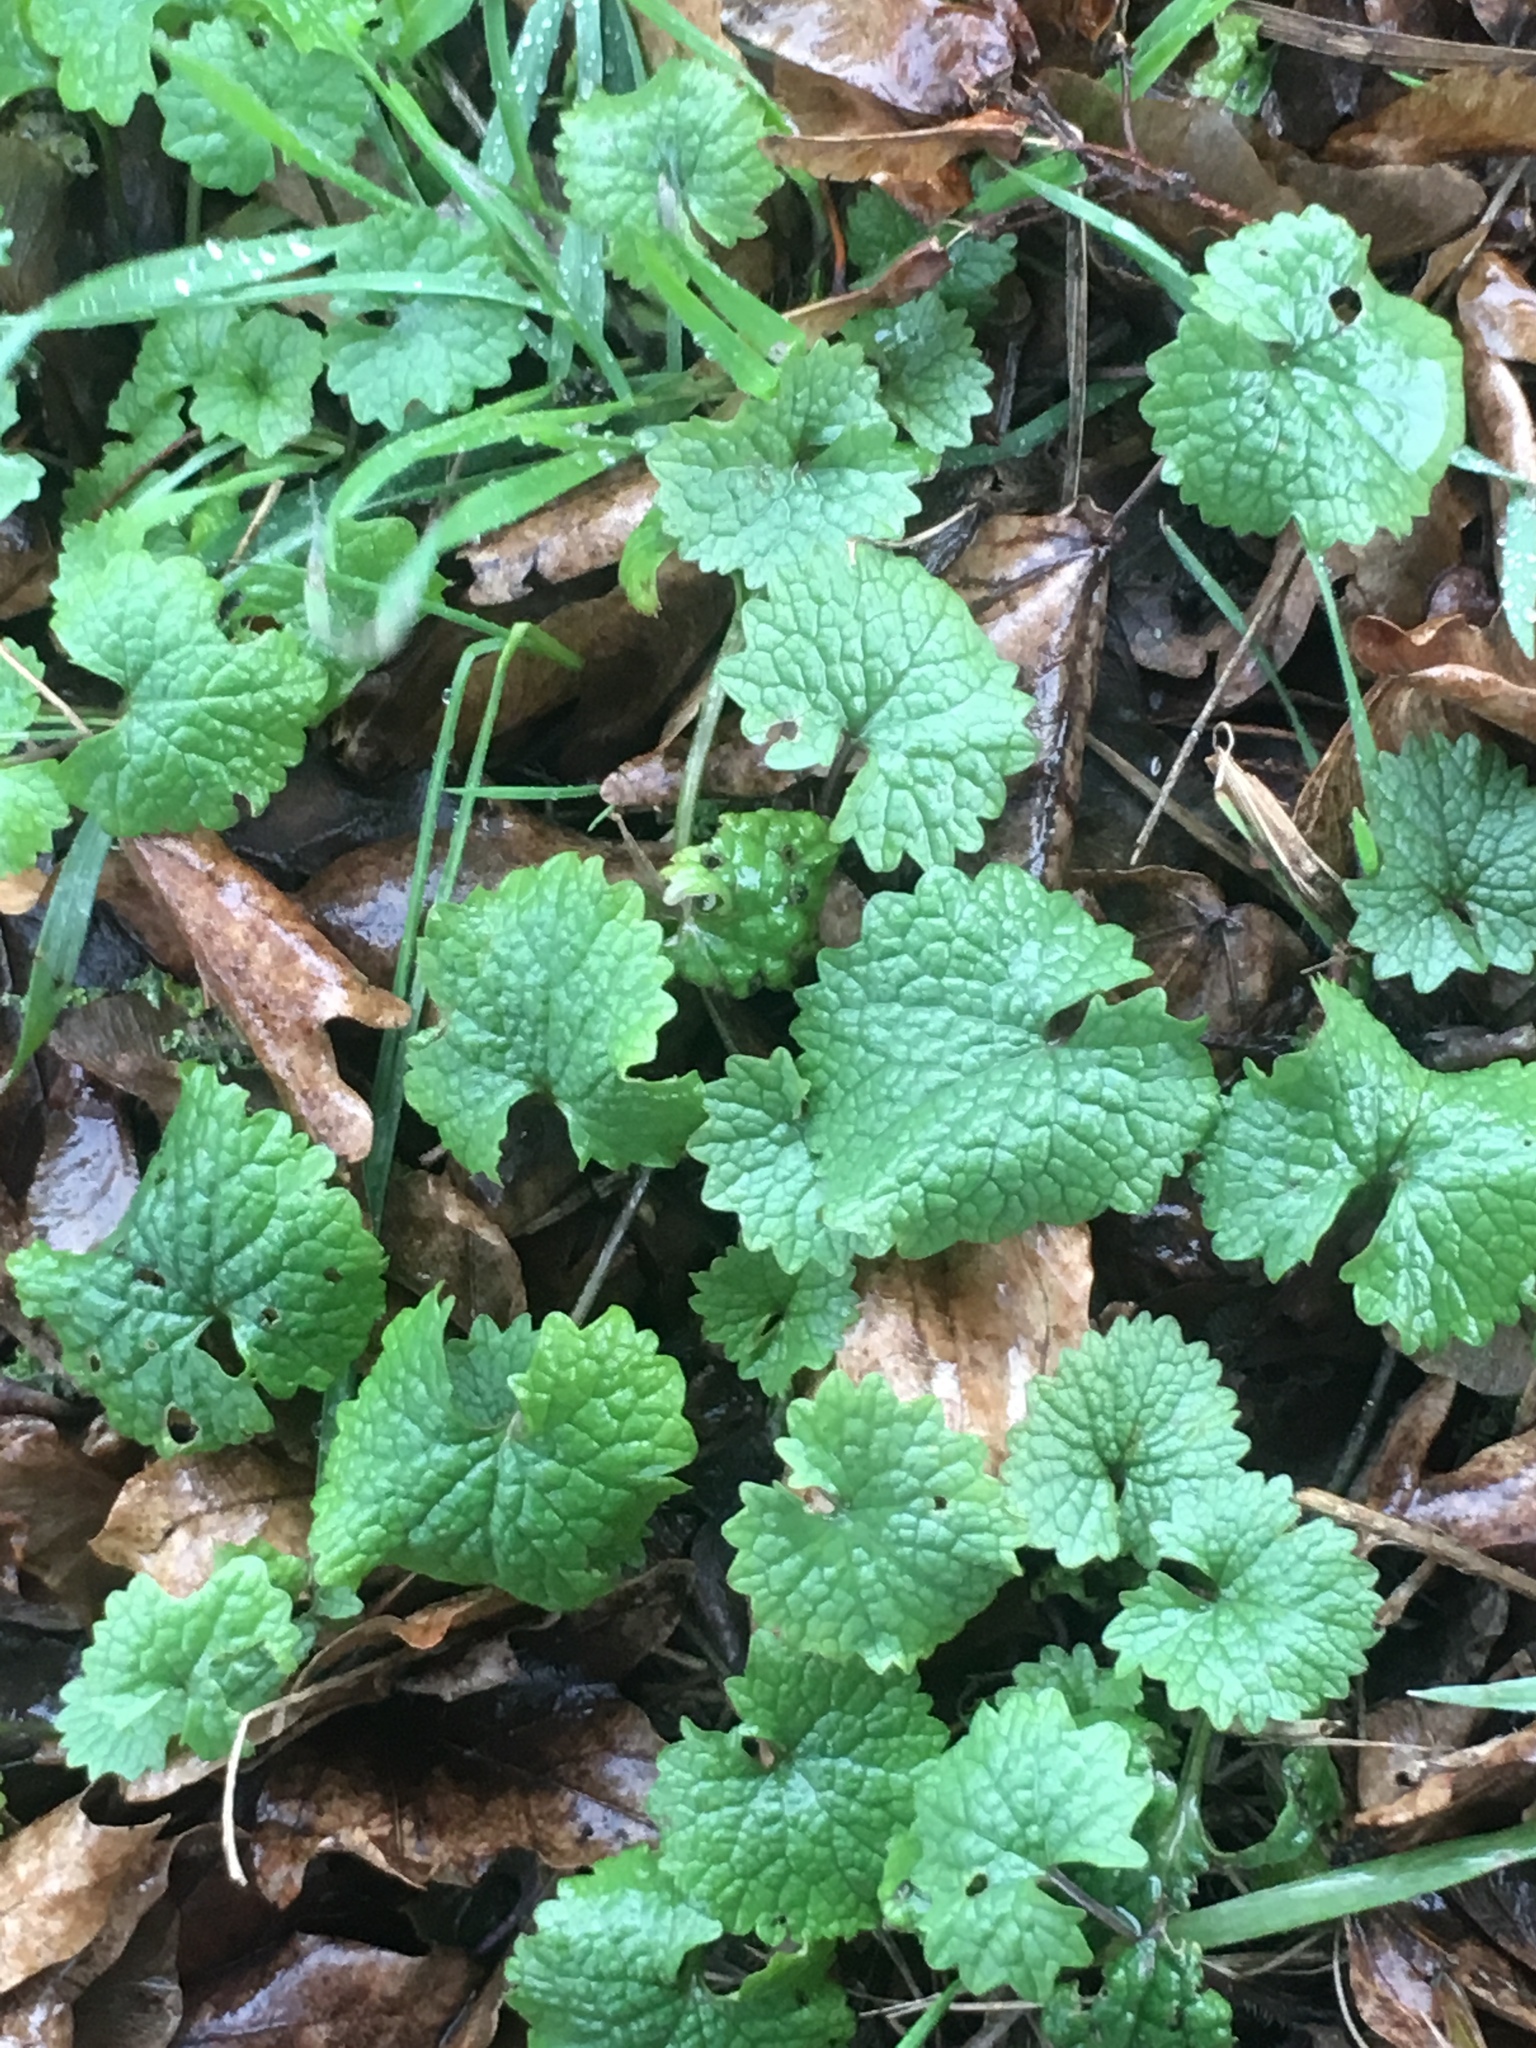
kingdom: Plantae
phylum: Tracheophyta
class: Magnoliopsida
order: Brassicales
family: Brassicaceae
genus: Alliaria
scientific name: Alliaria petiolata
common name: Garlic mustard
